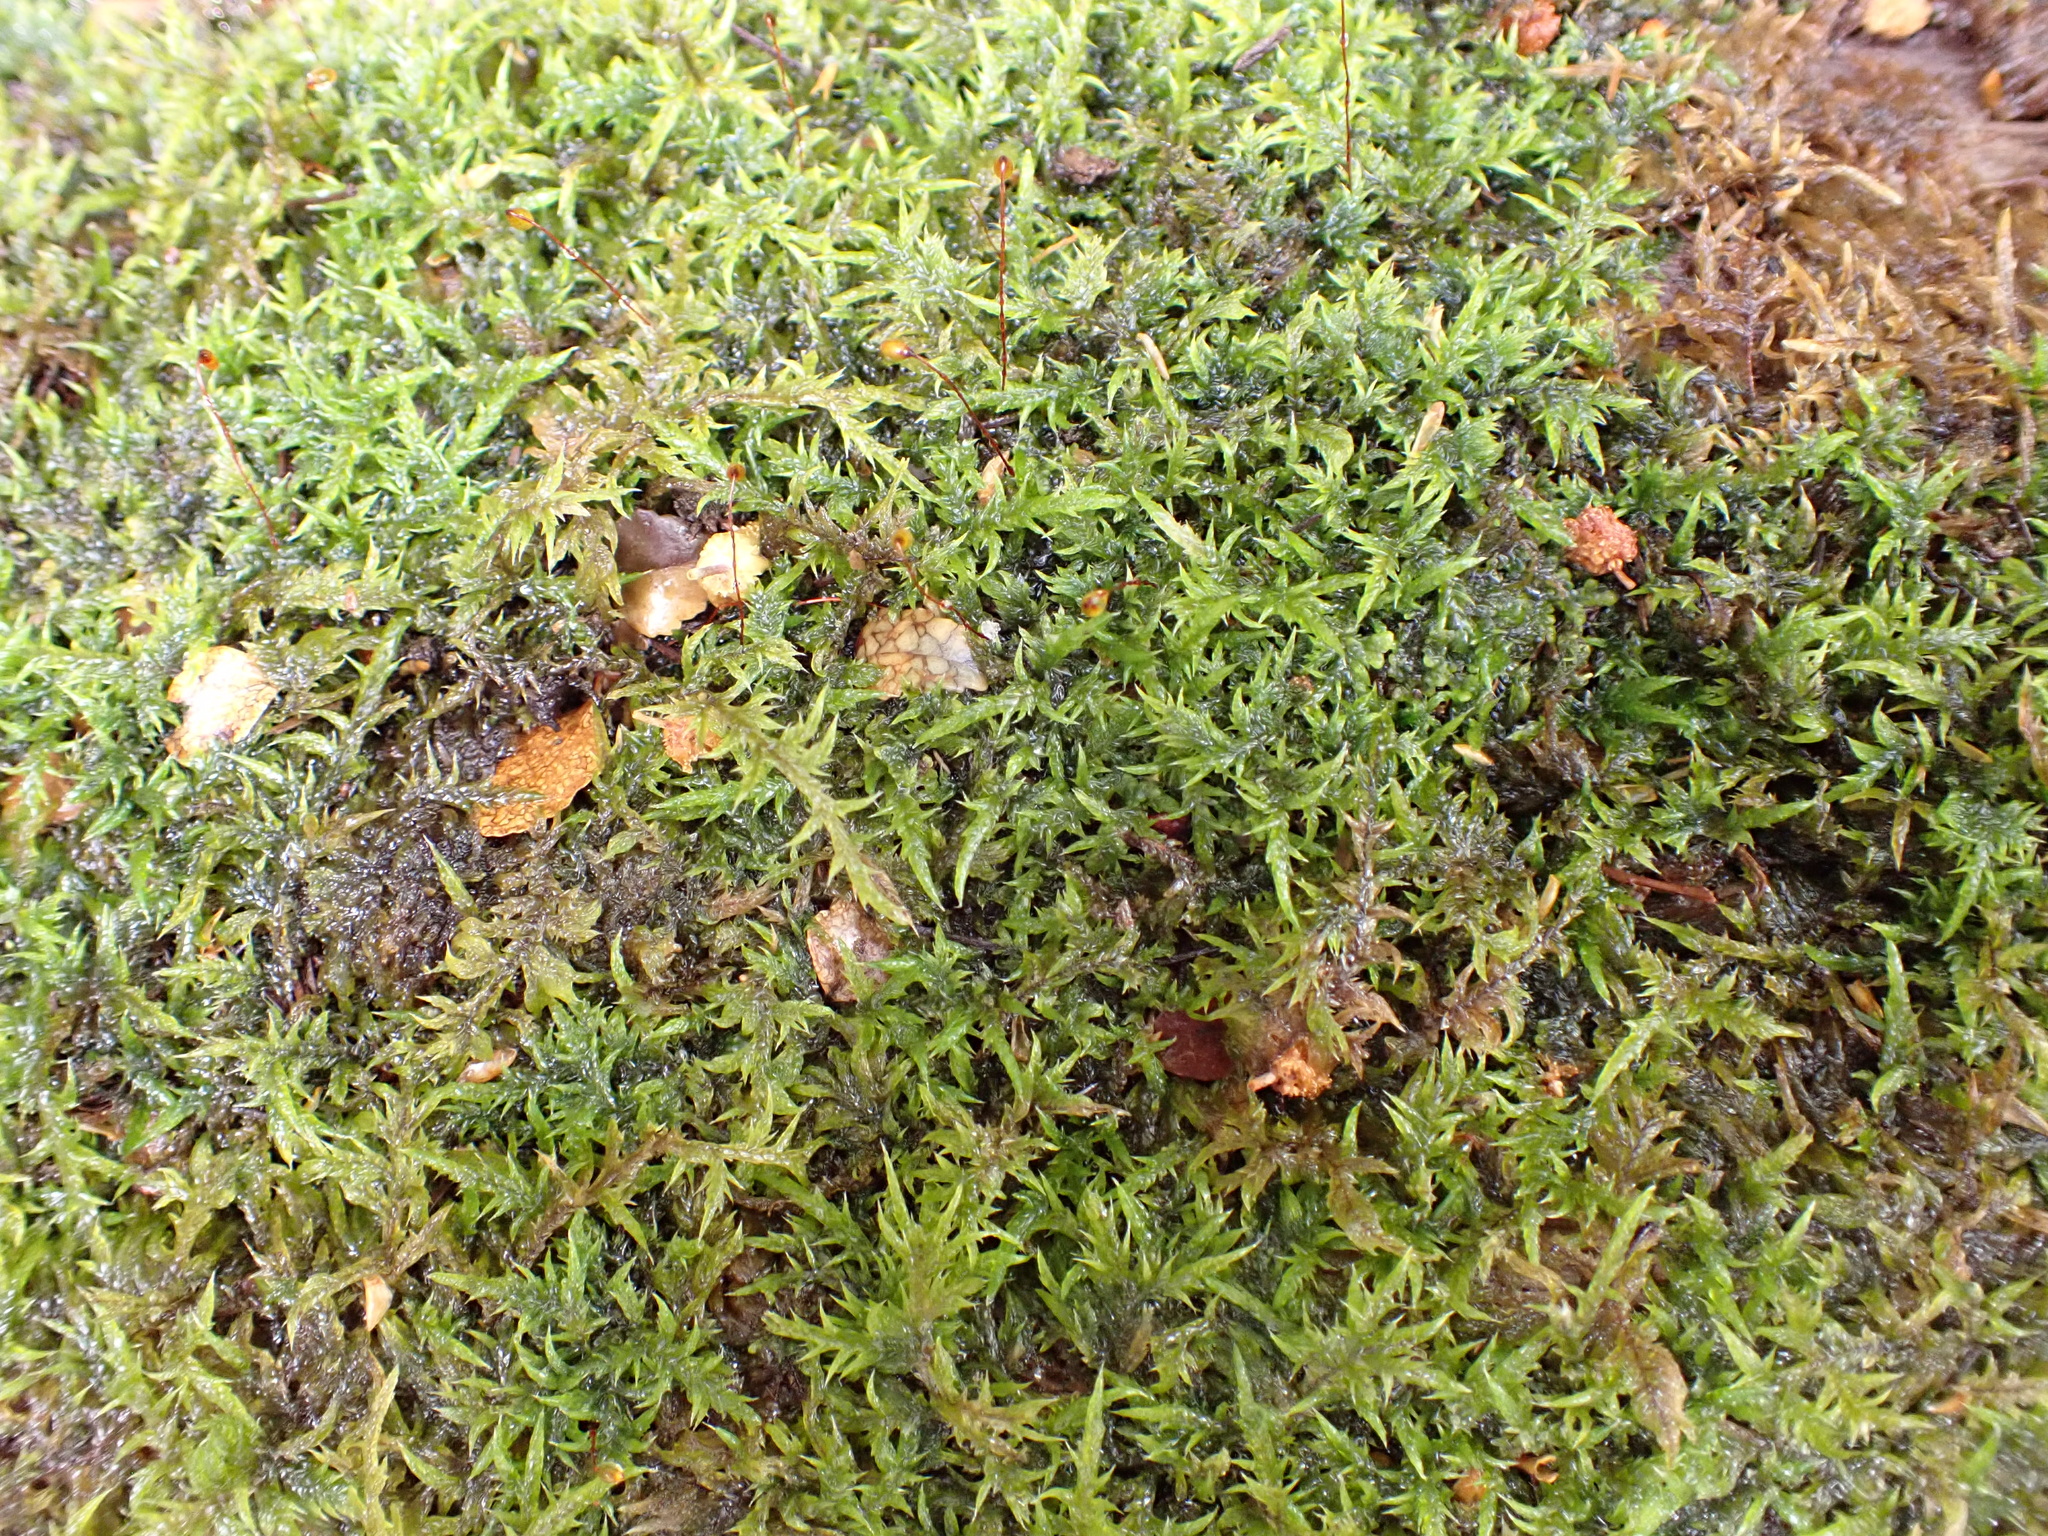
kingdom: Plantae
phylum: Bryophyta
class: Bryopsida
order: Hypnales
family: Pylaisiadelphaceae
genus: Wijkia
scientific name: Wijkia extenuata
